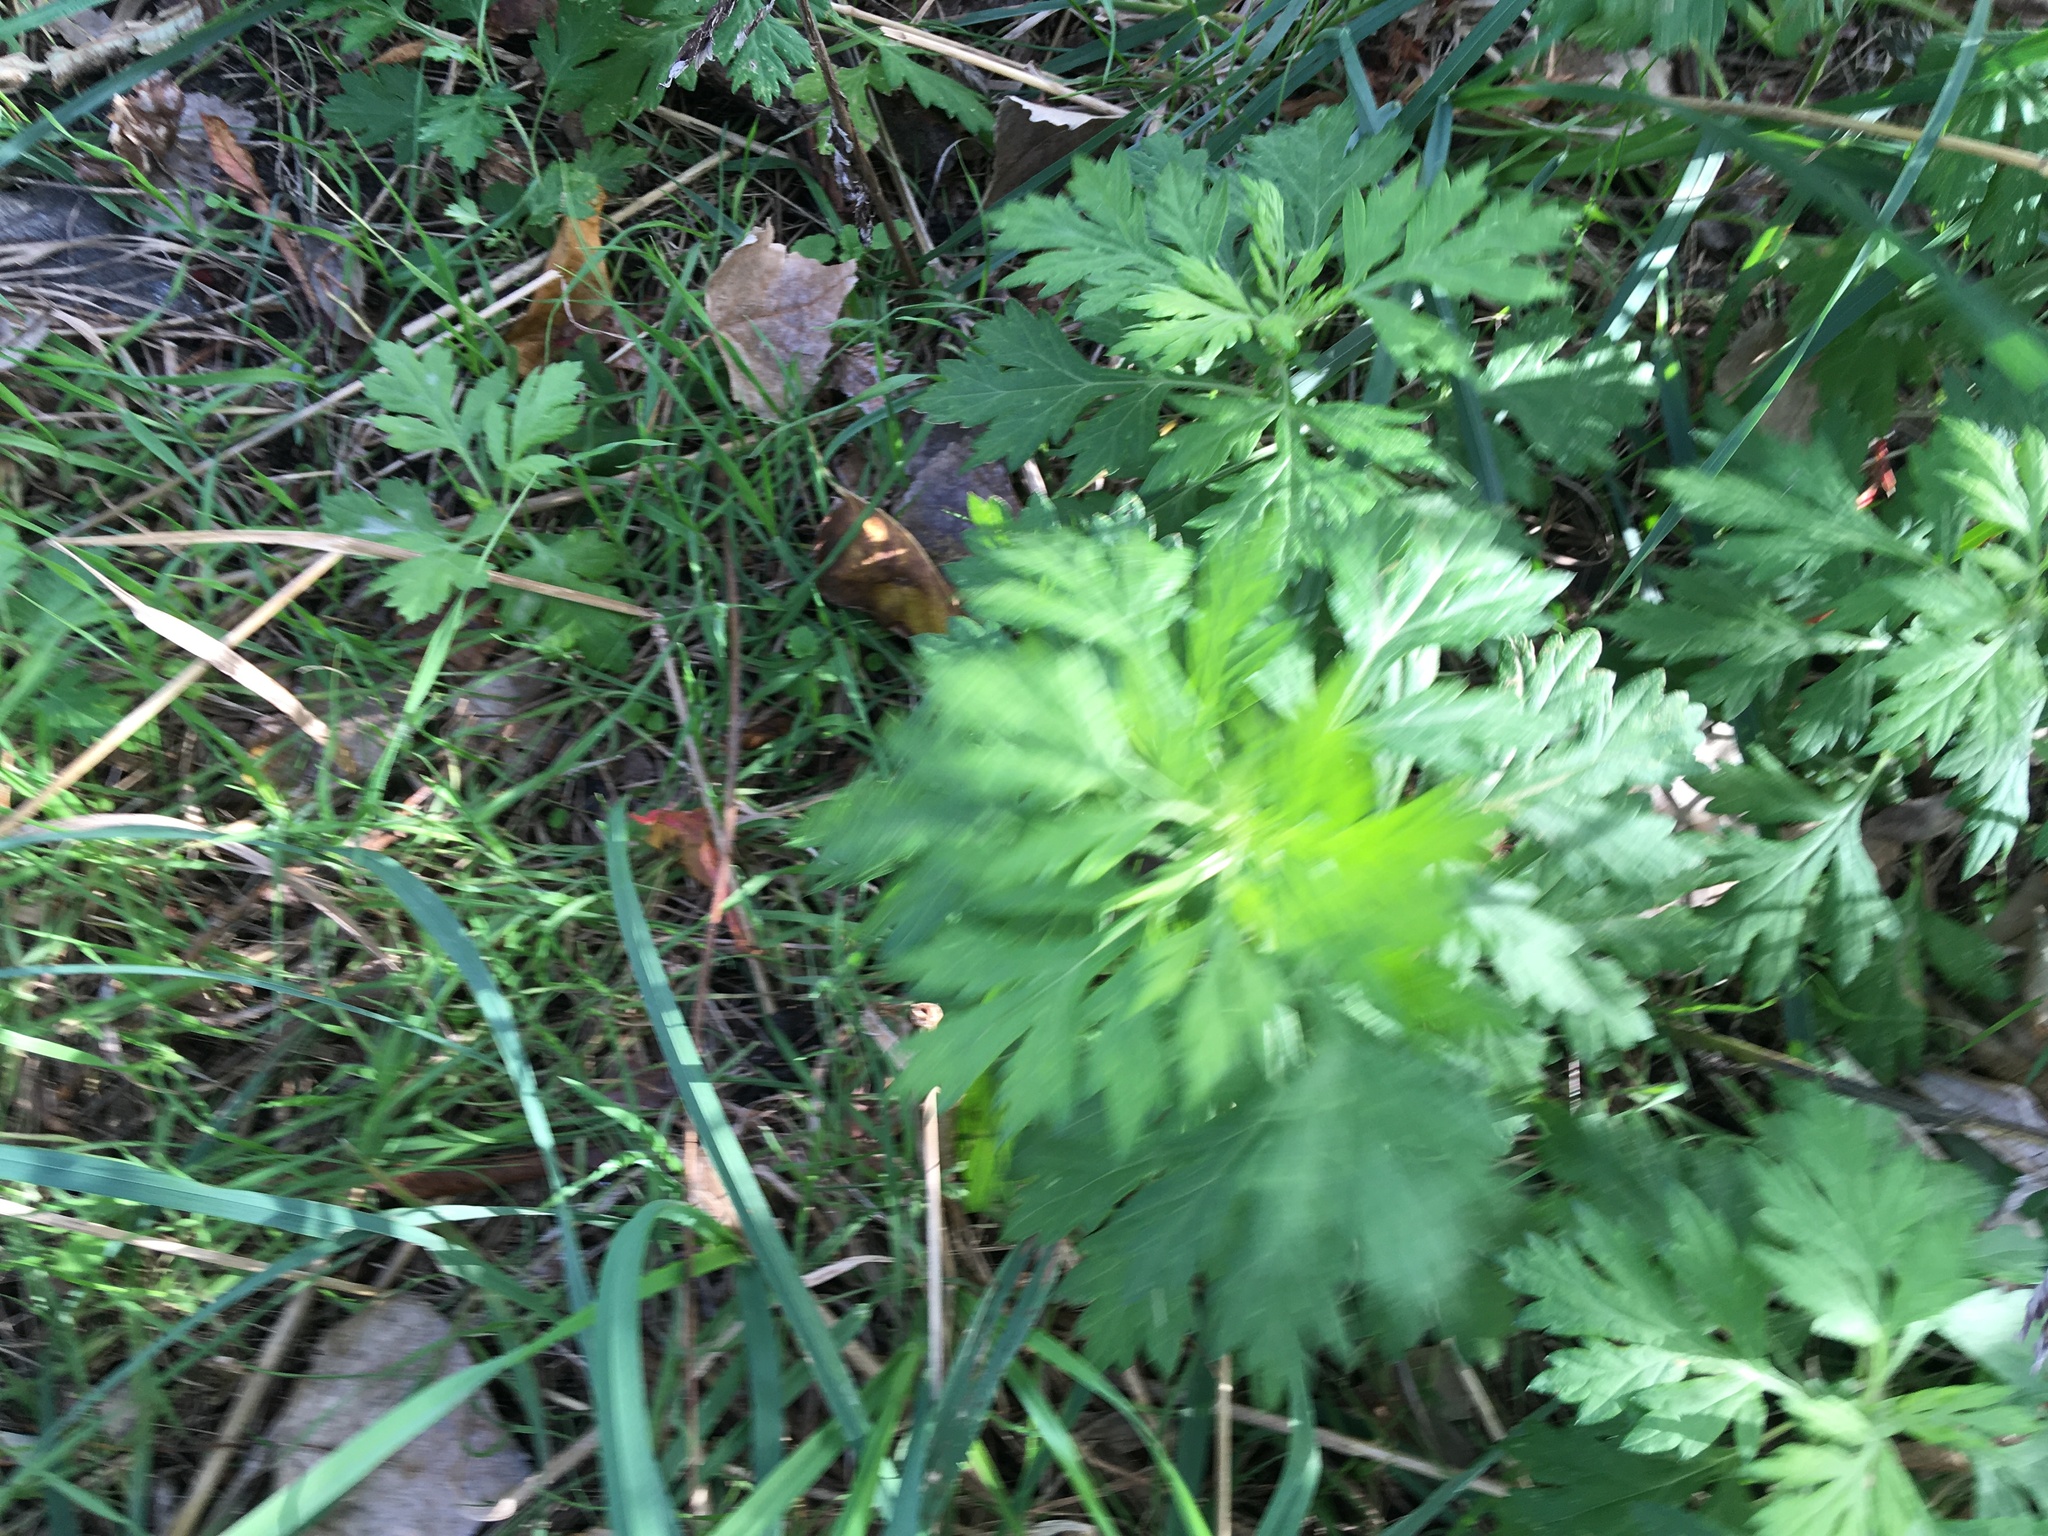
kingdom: Plantae
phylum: Tracheophyta
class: Magnoliopsida
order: Asterales
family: Asteraceae
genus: Artemisia
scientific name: Artemisia vulgaris
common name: Mugwort
